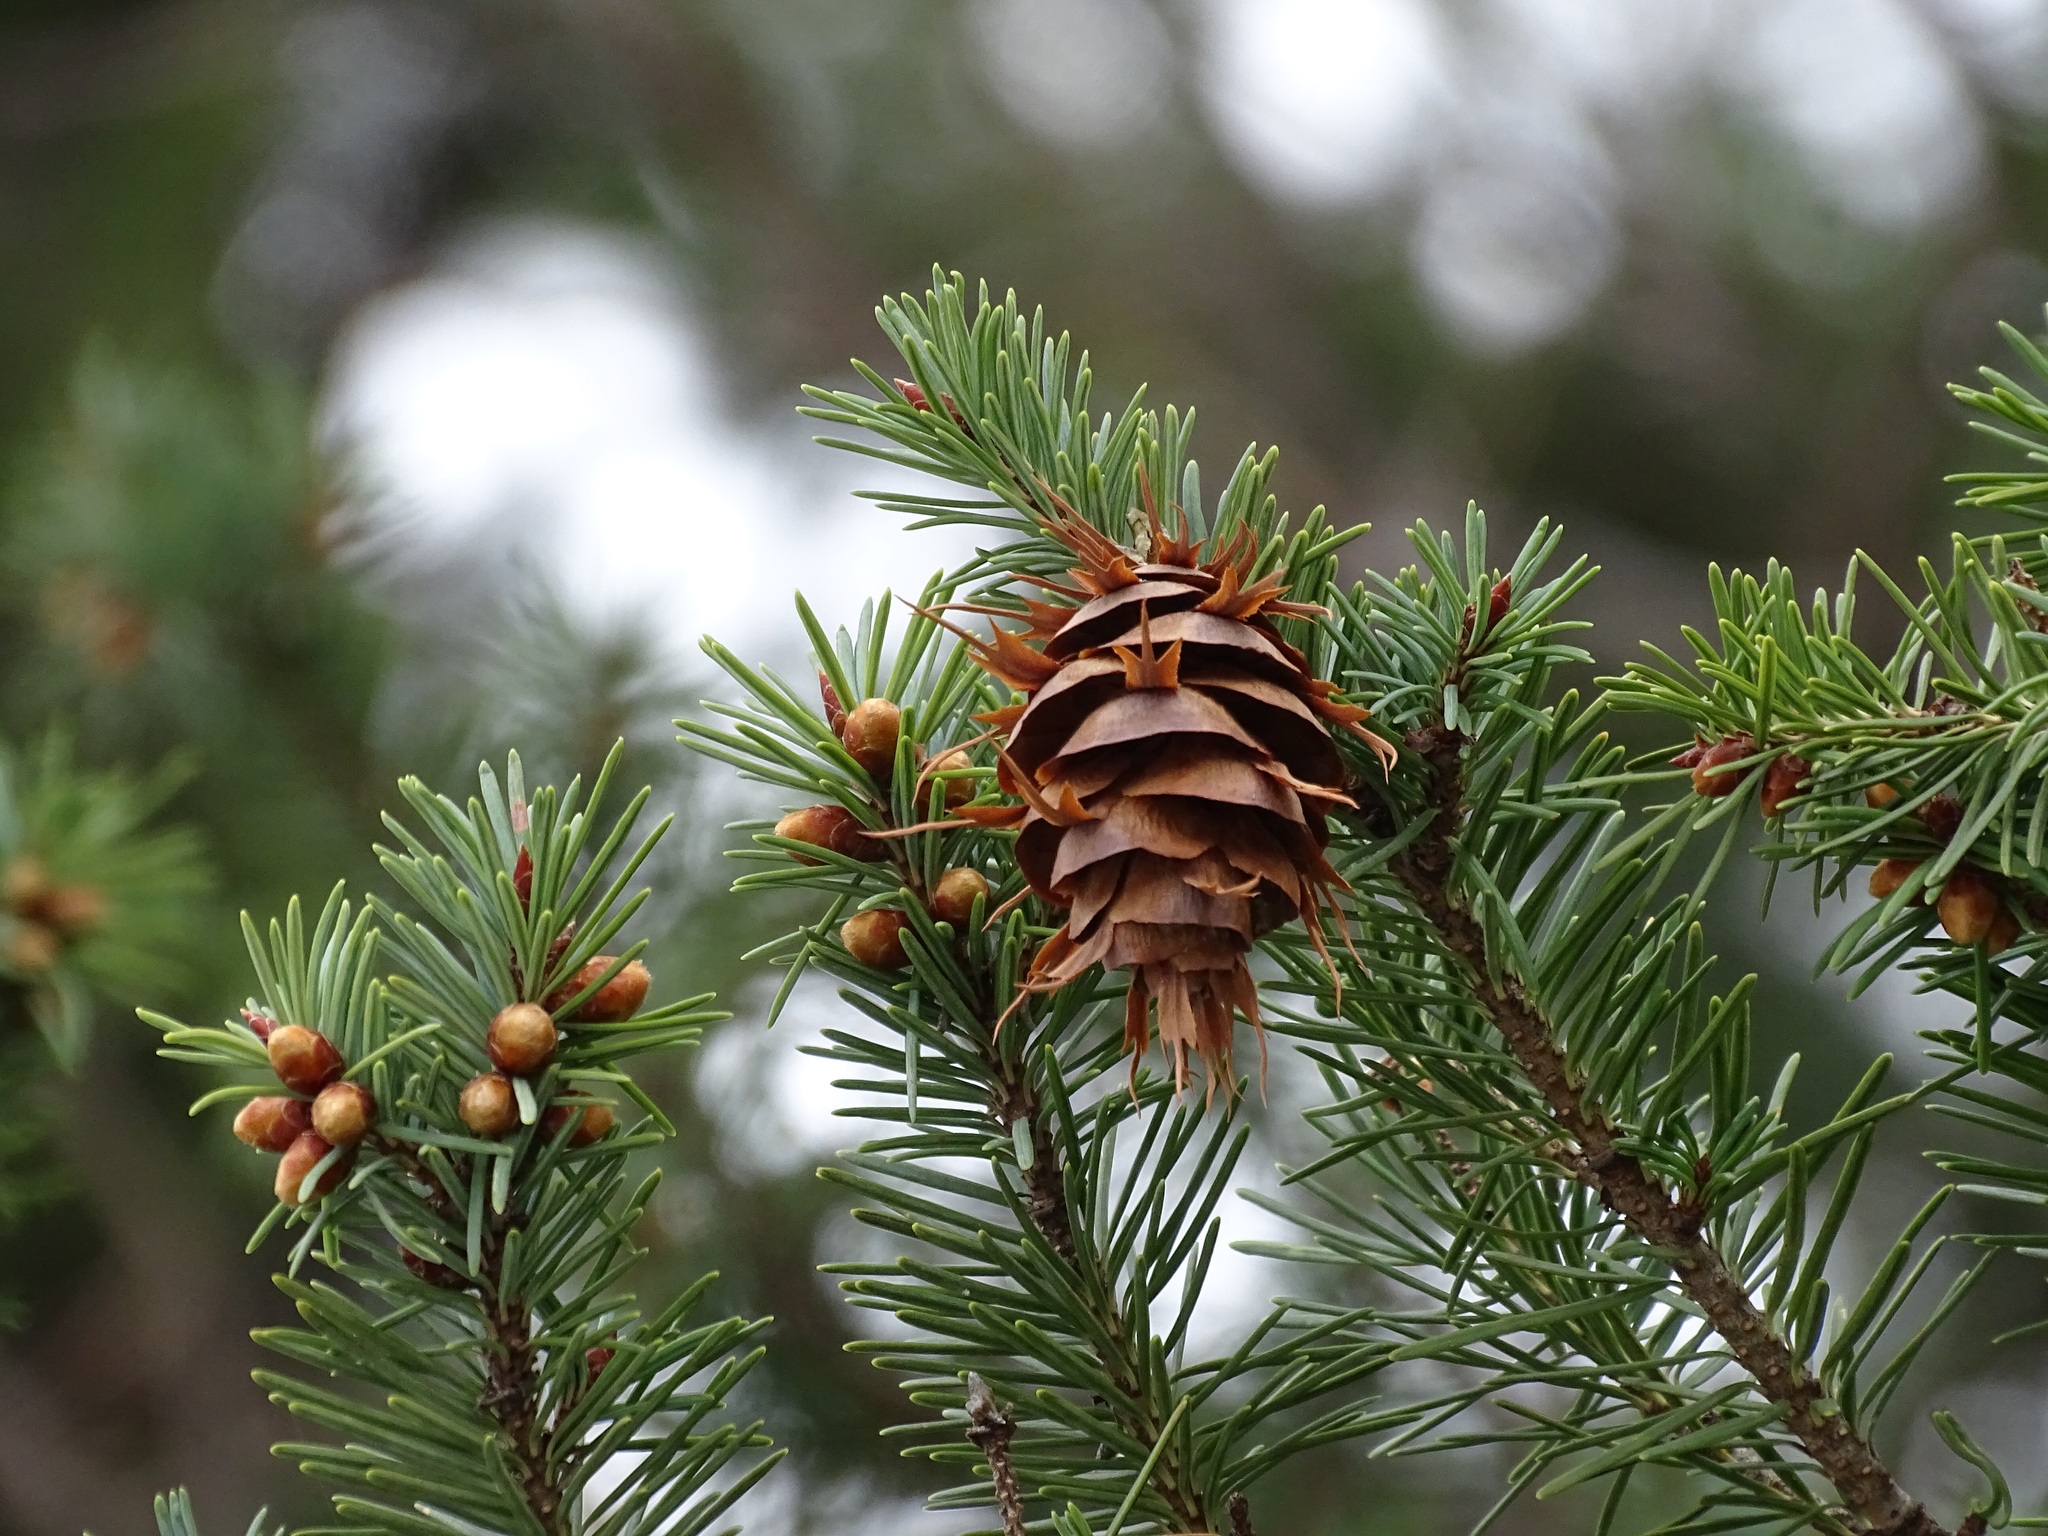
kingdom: Plantae
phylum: Tracheophyta
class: Pinopsida
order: Pinales
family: Pinaceae
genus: Pseudotsuga
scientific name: Pseudotsuga menziesii
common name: Douglas fir
